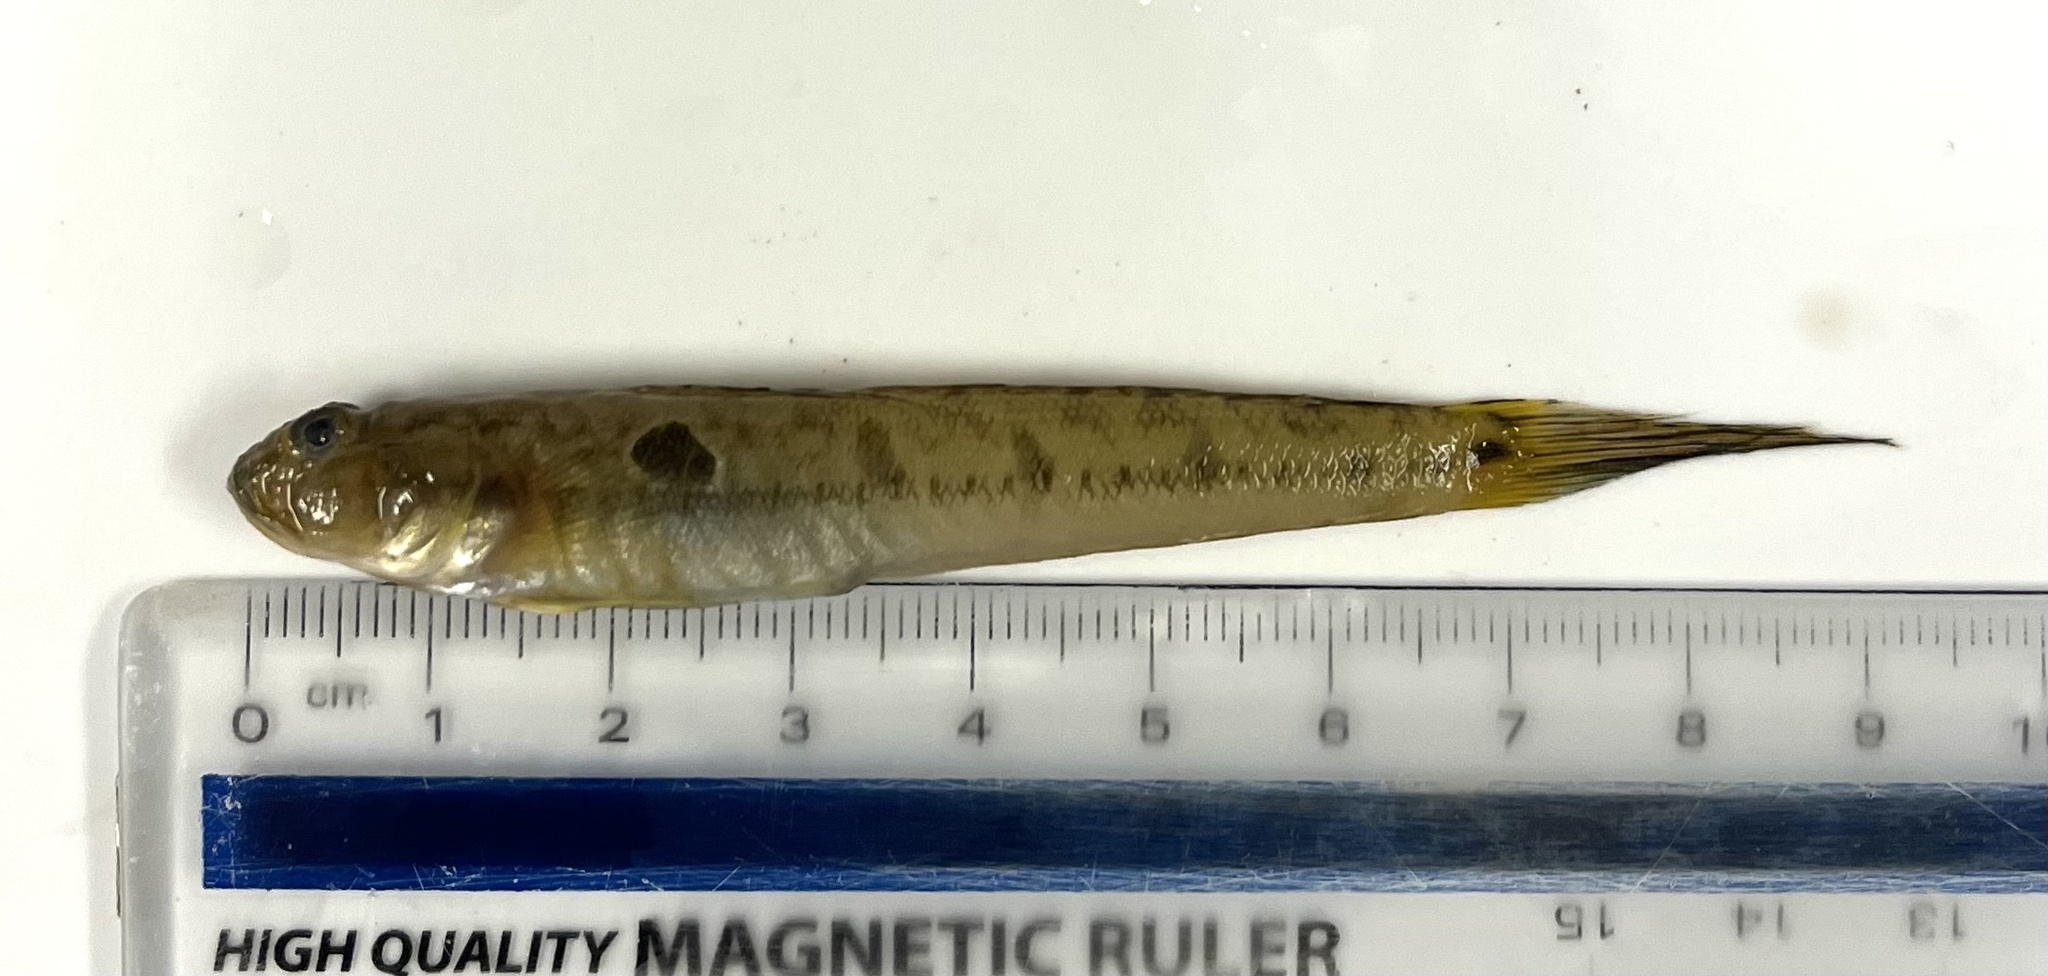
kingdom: Animalia
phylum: Chordata
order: Perciformes
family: Gobiidae
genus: Gobionellus
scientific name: Gobionellus oceanicus
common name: Highfin goby
